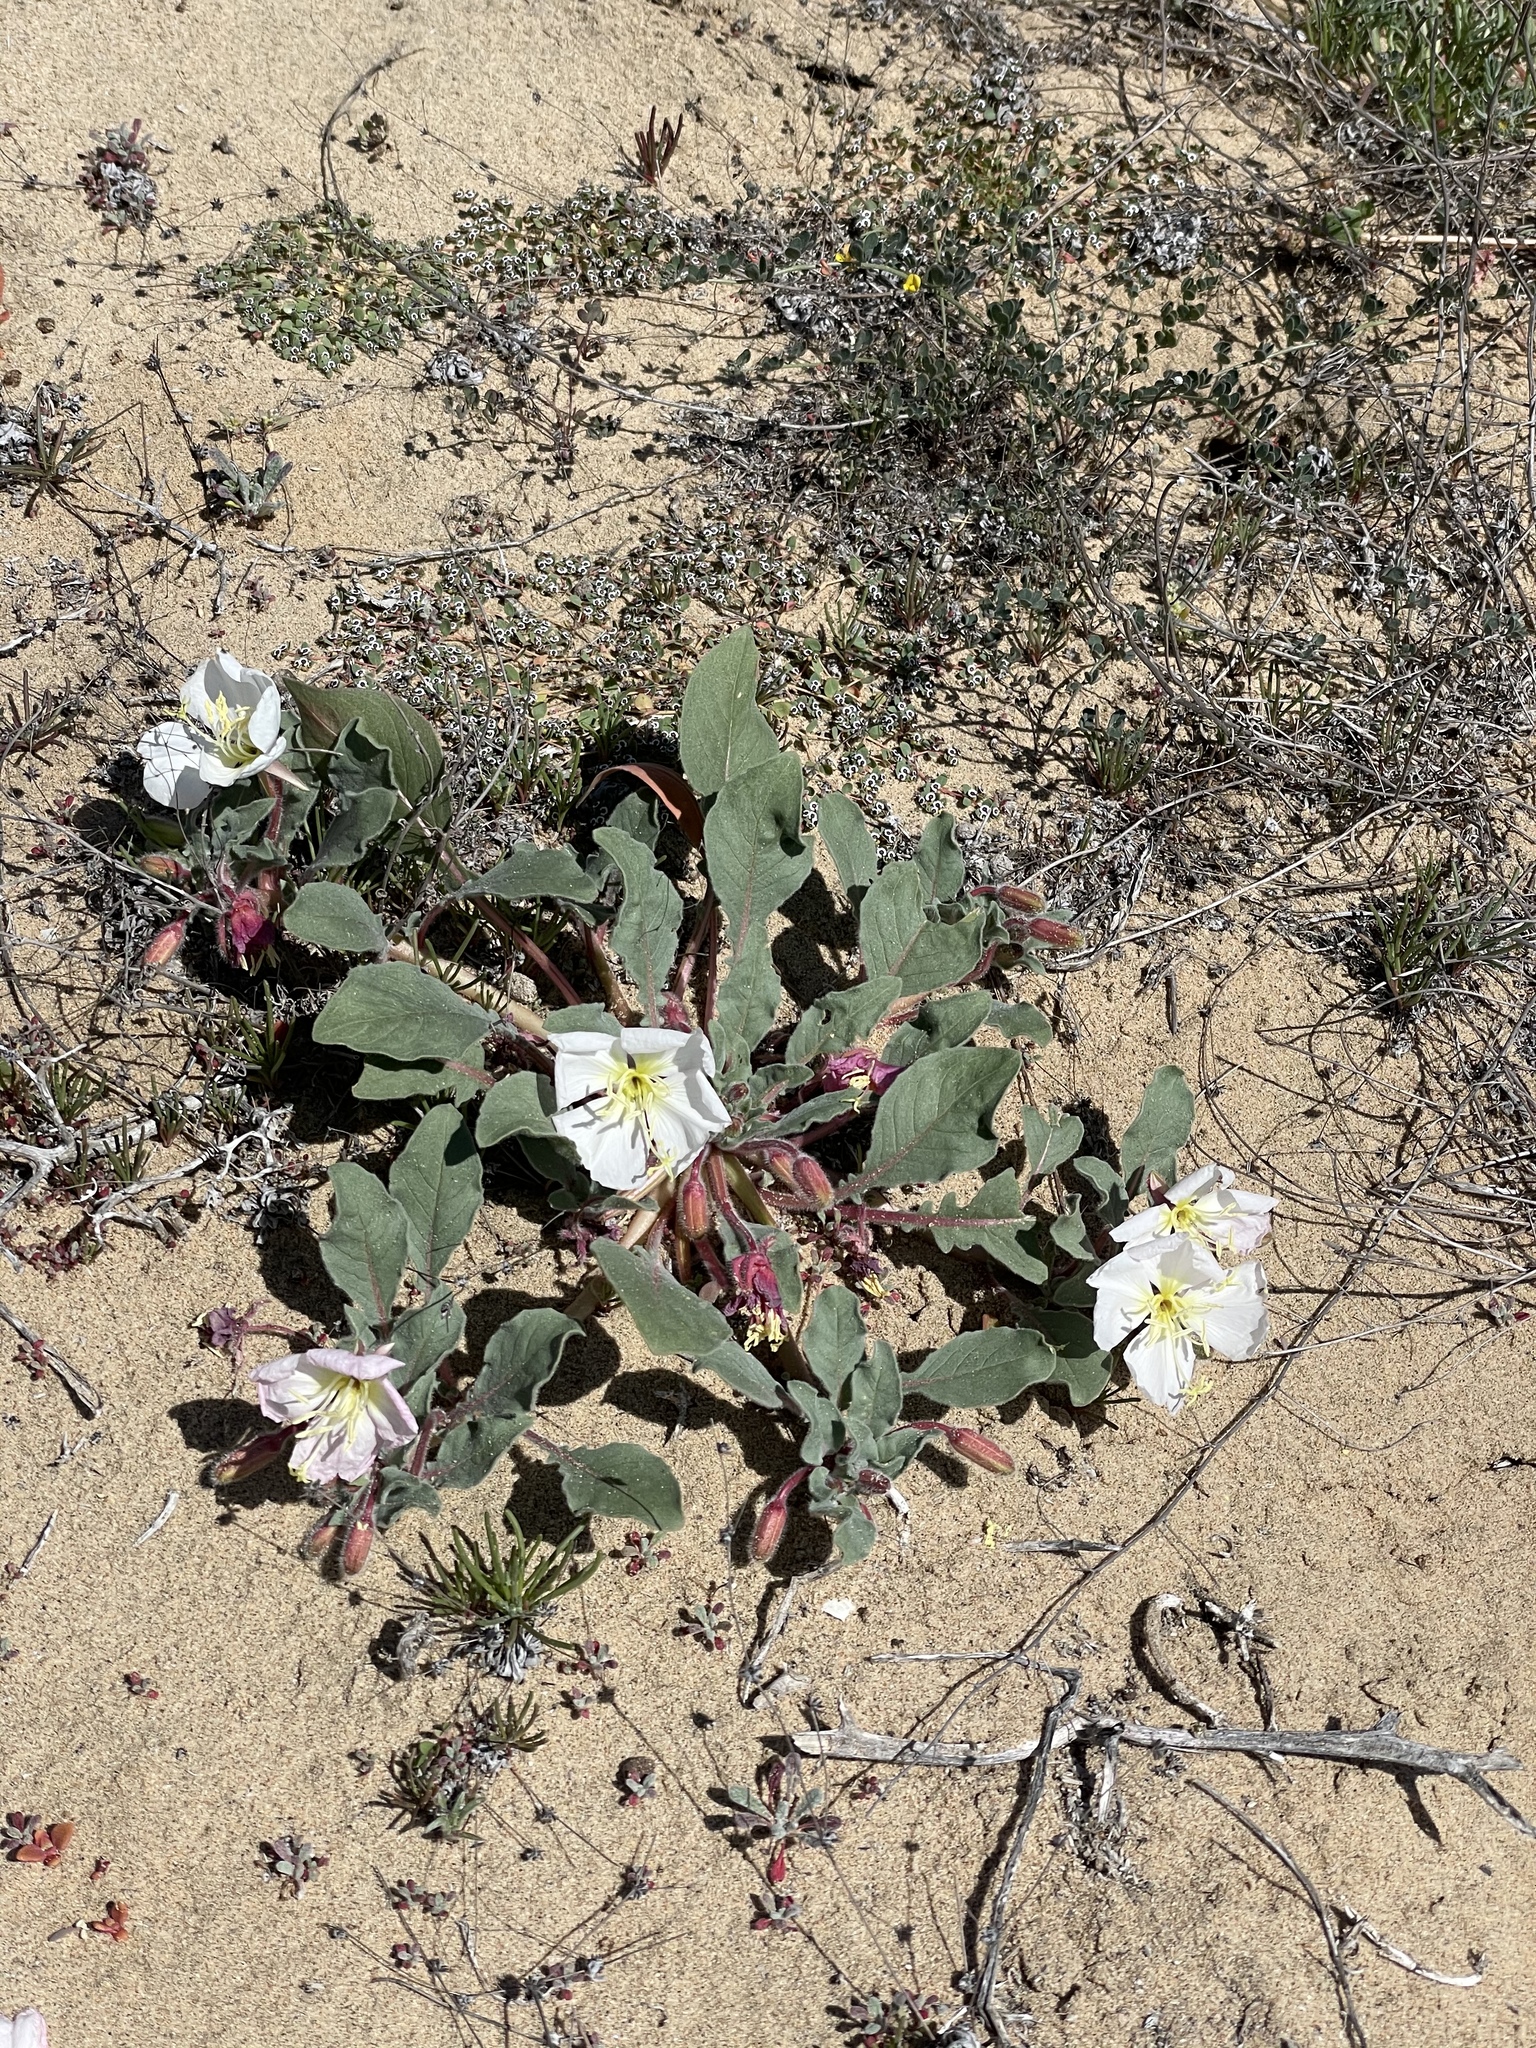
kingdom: Plantae
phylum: Tracheophyta
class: Magnoliopsida
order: Myrtales
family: Onagraceae
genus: Oenothera
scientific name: Oenothera wigginsii
